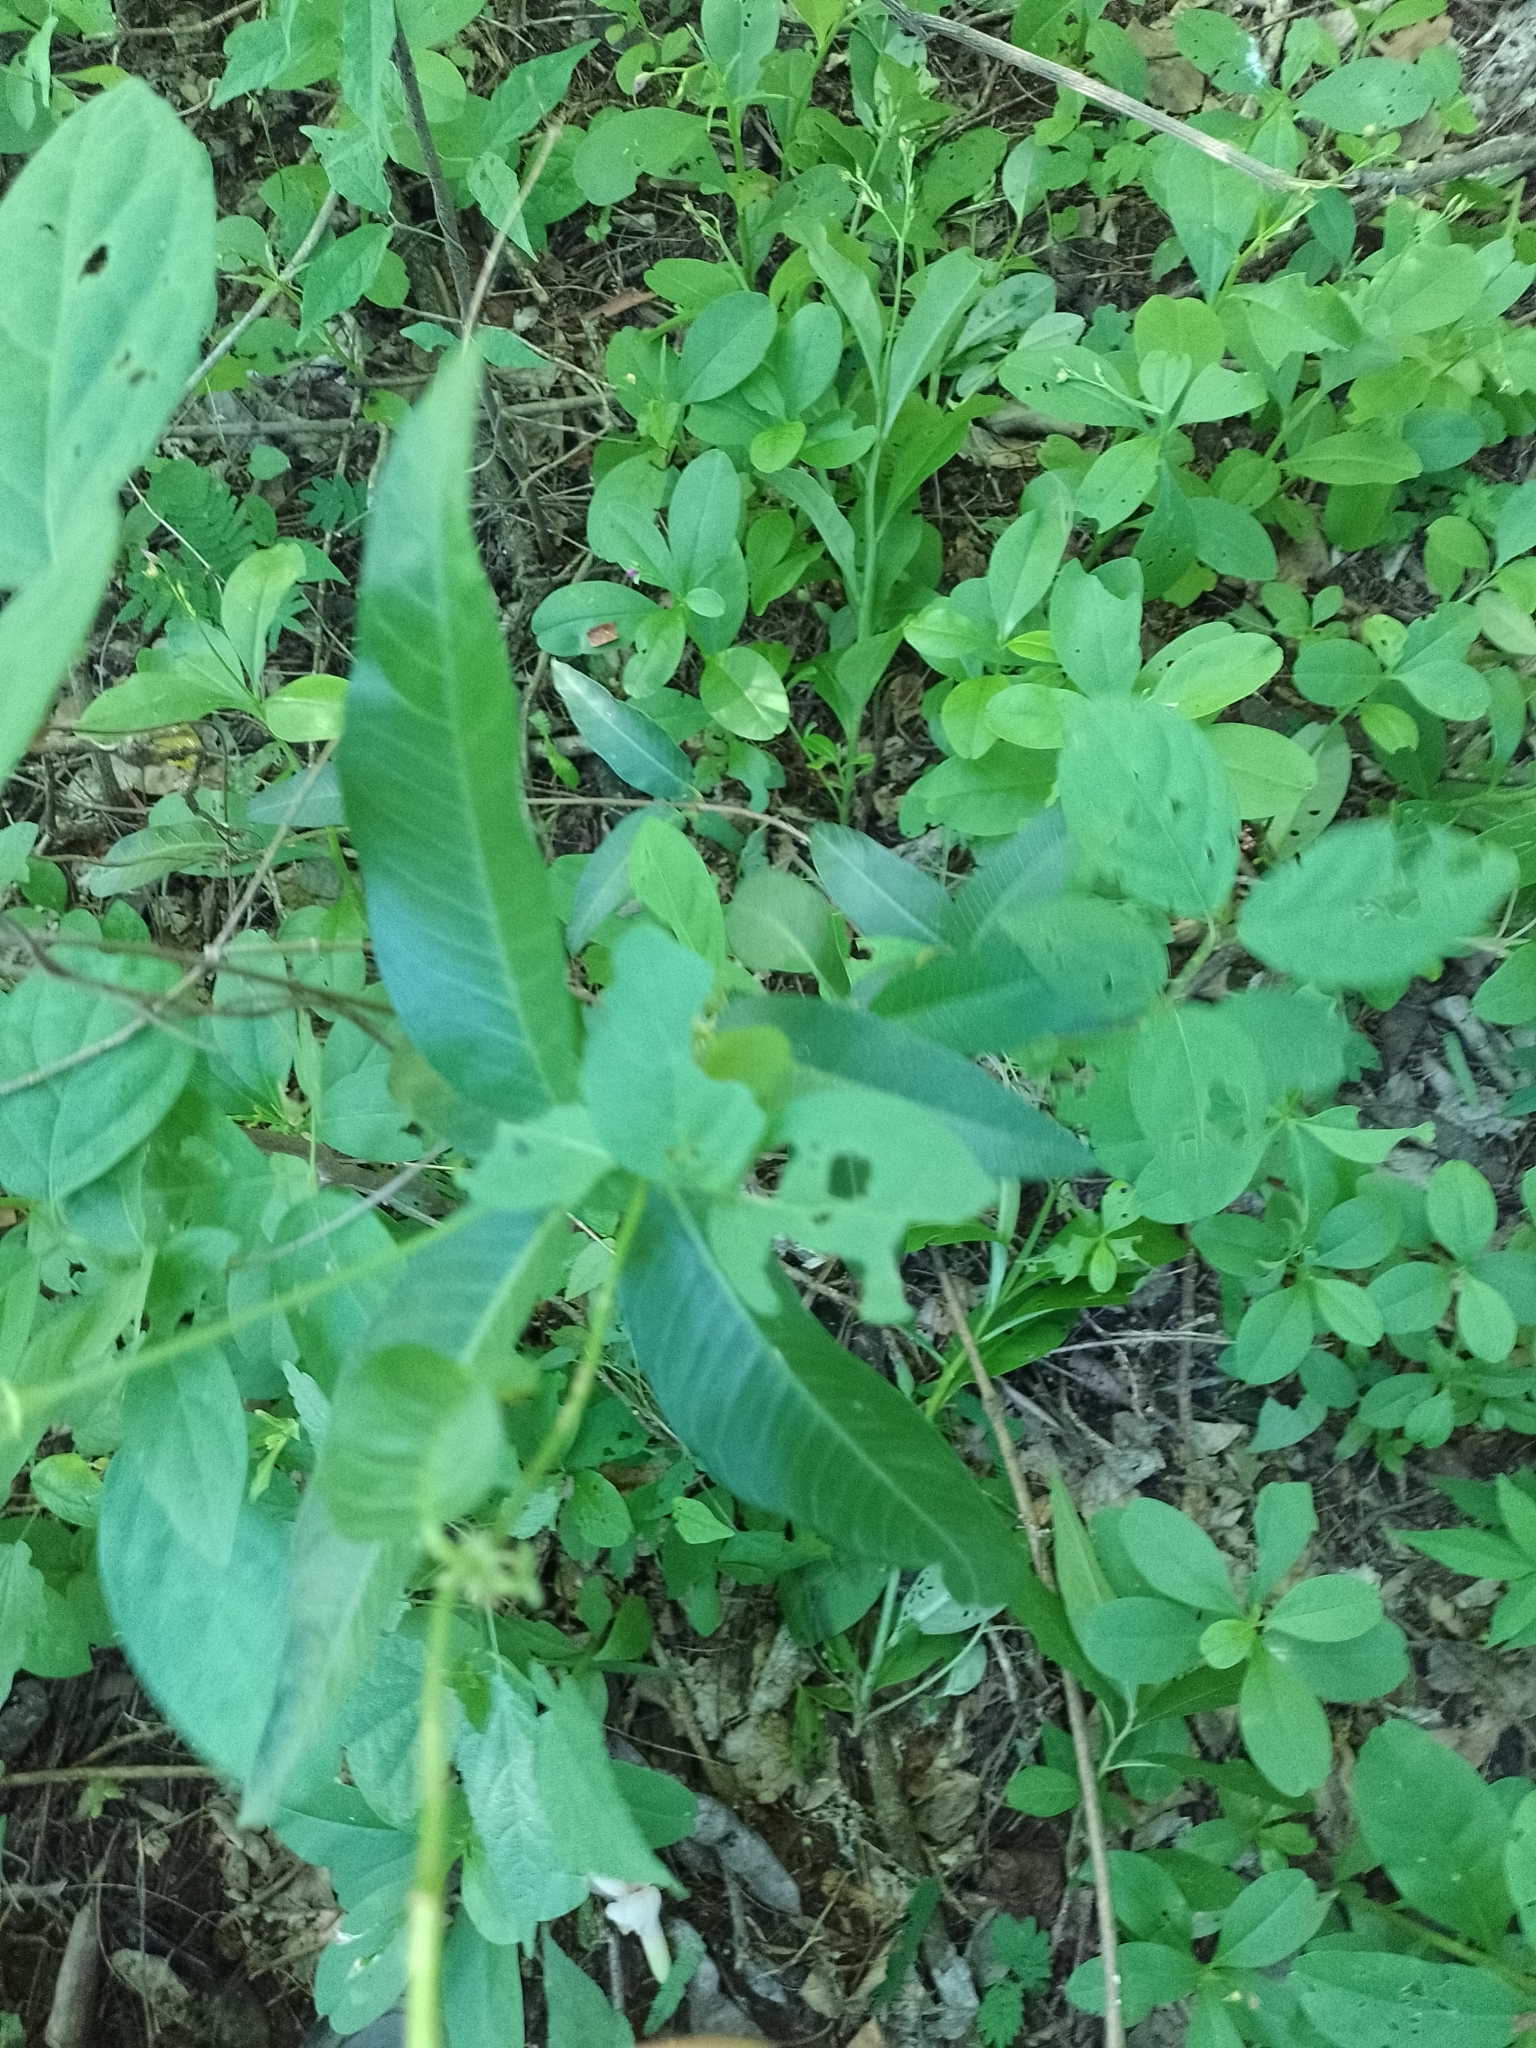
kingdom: Plantae
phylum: Tracheophyta
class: Magnoliopsida
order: Gentianales
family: Apocynaceae
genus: Mandevilla
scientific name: Mandevilla angustifolia
